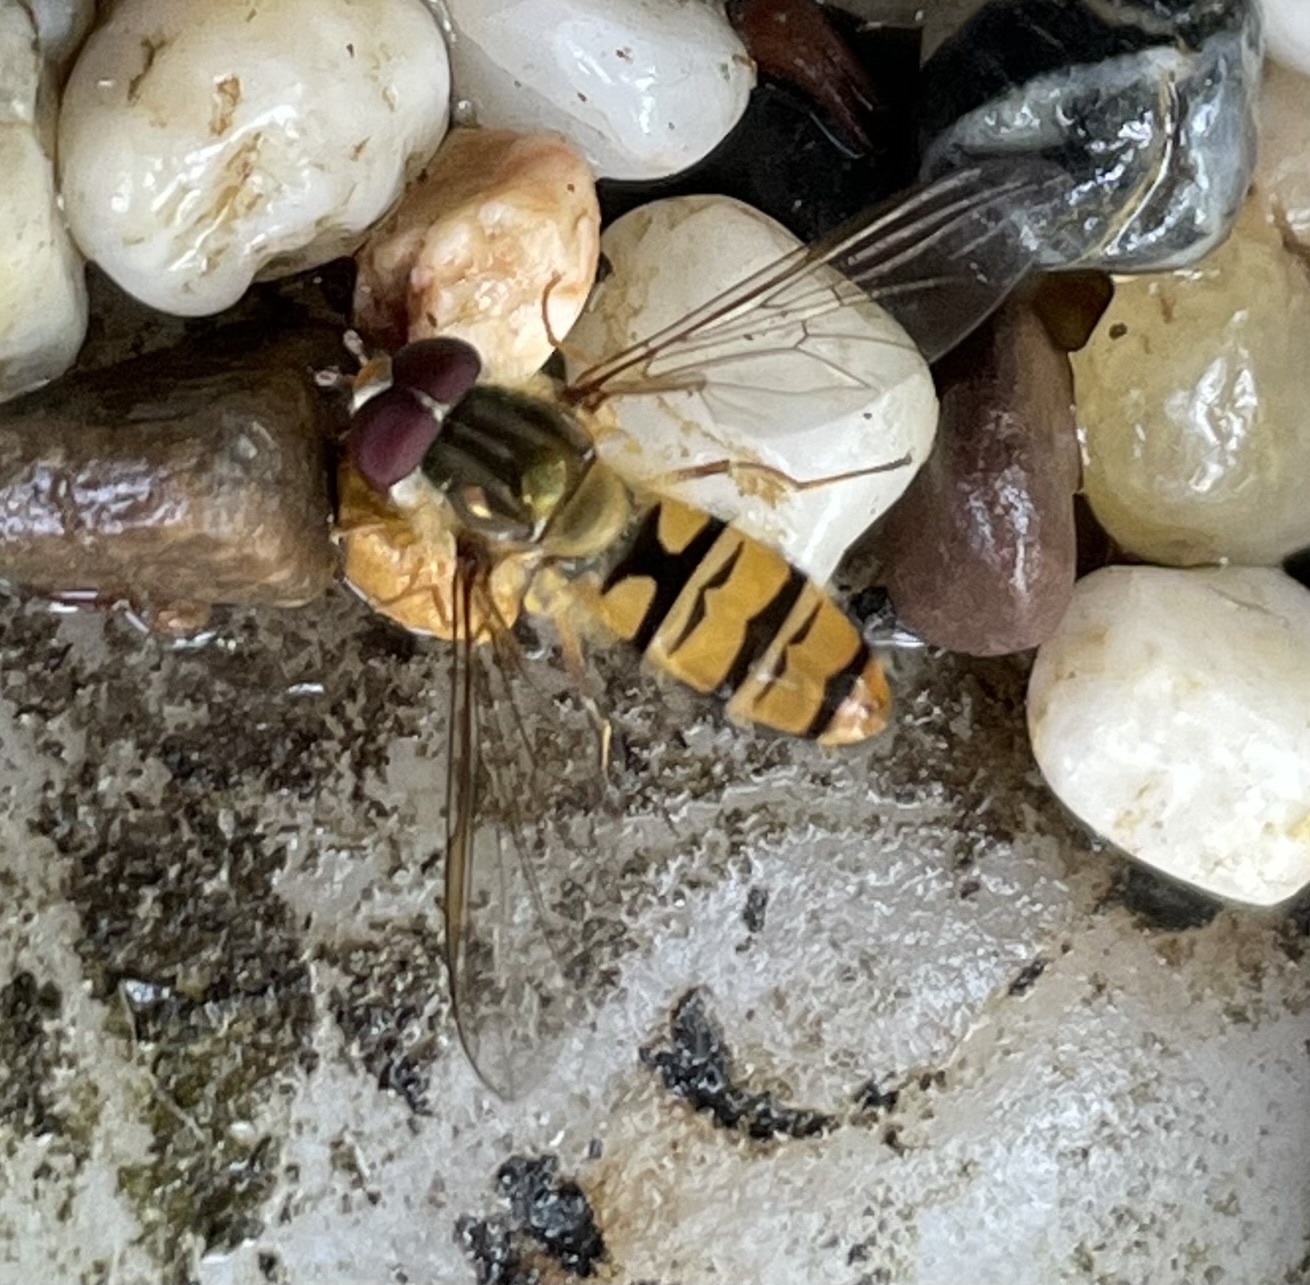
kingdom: Animalia
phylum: Arthropoda
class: Insecta
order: Diptera
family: Syrphidae
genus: Episyrphus
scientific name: Episyrphus balteatus
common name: Marmalade hoverfly
